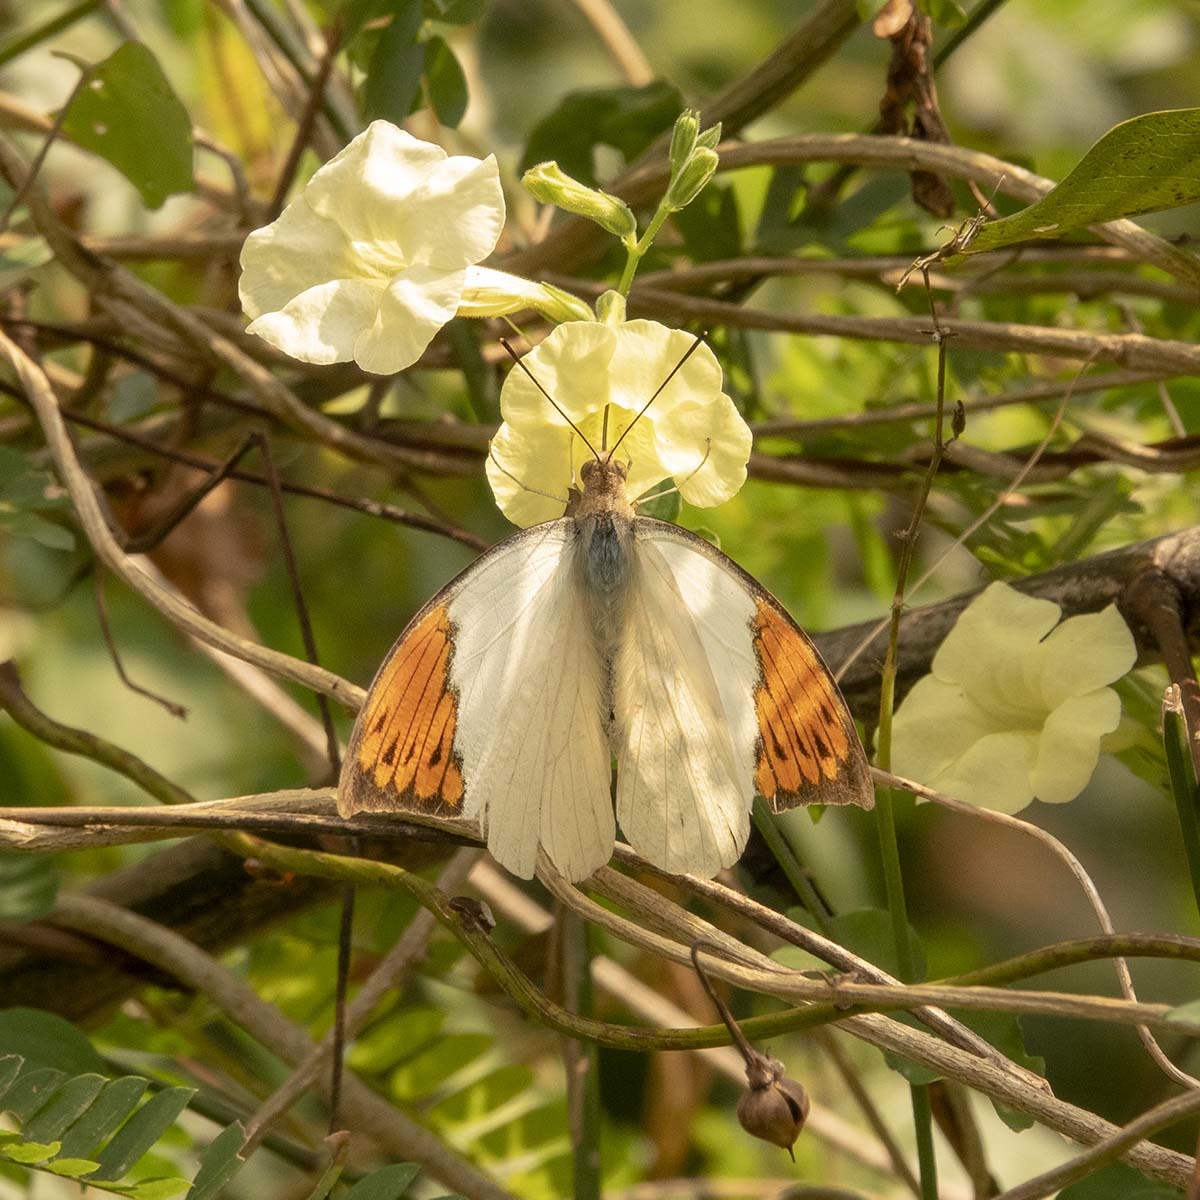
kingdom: Animalia
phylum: Arthropoda
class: Insecta
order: Lepidoptera
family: Pieridae
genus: Hebomoia
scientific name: Hebomoia glaucippe
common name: Great orange tip
